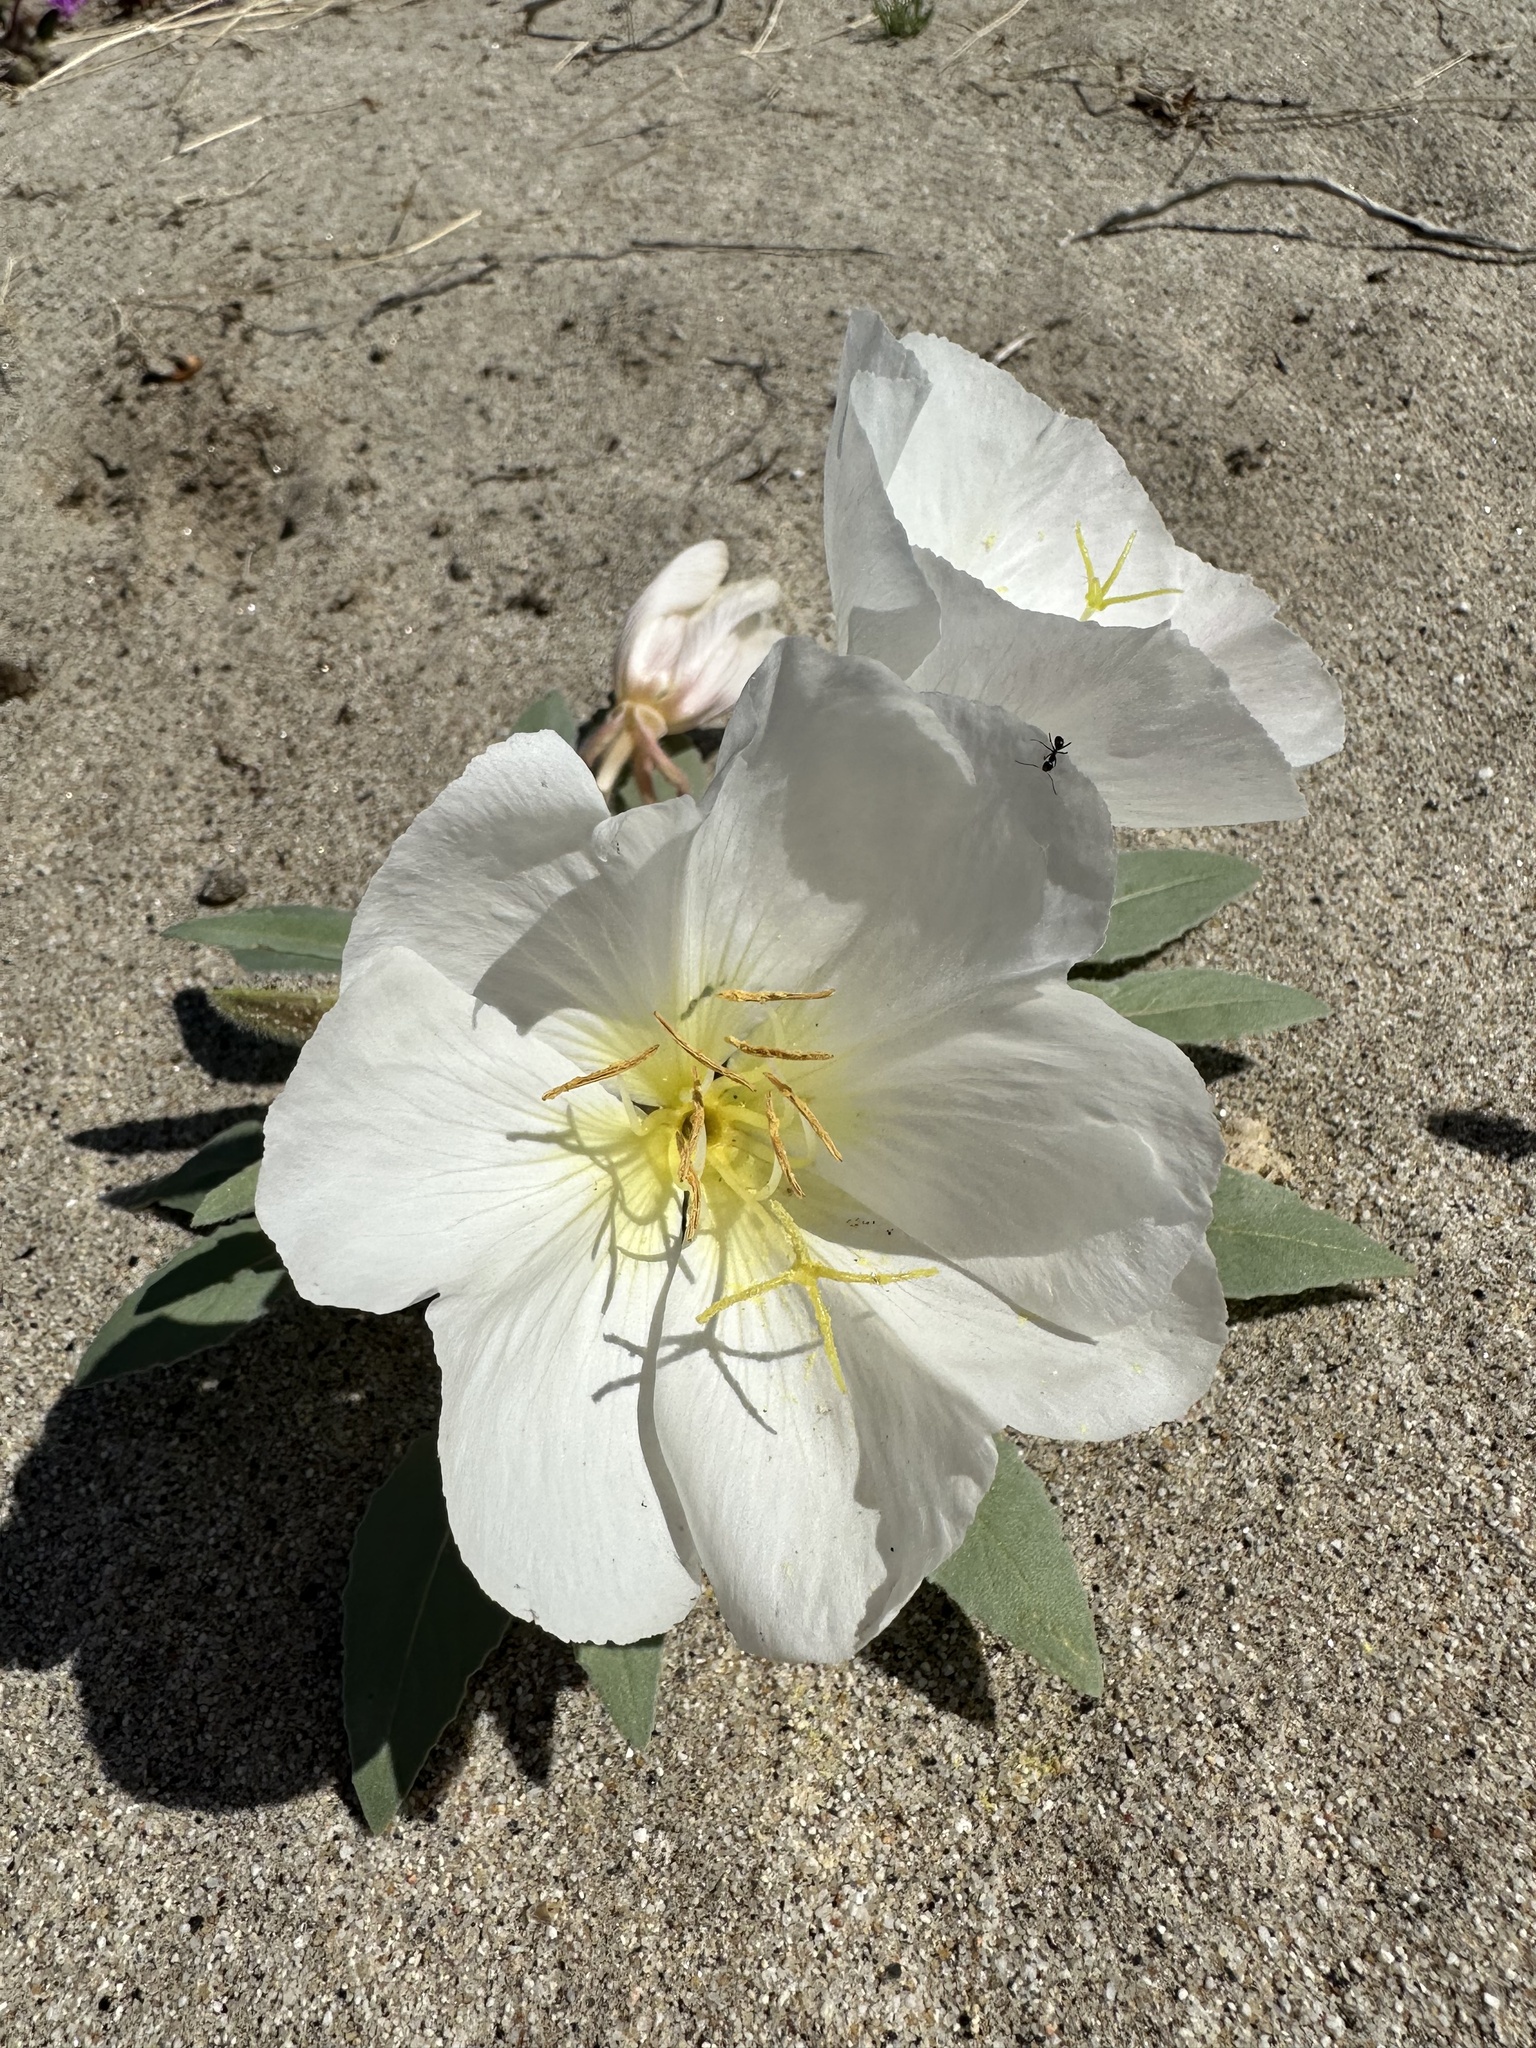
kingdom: Plantae
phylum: Tracheophyta
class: Magnoliopsida
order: Myrtales
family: Onagraceae
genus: Oenothera
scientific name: Oenothera deltoides
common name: Basket evening-primrose
